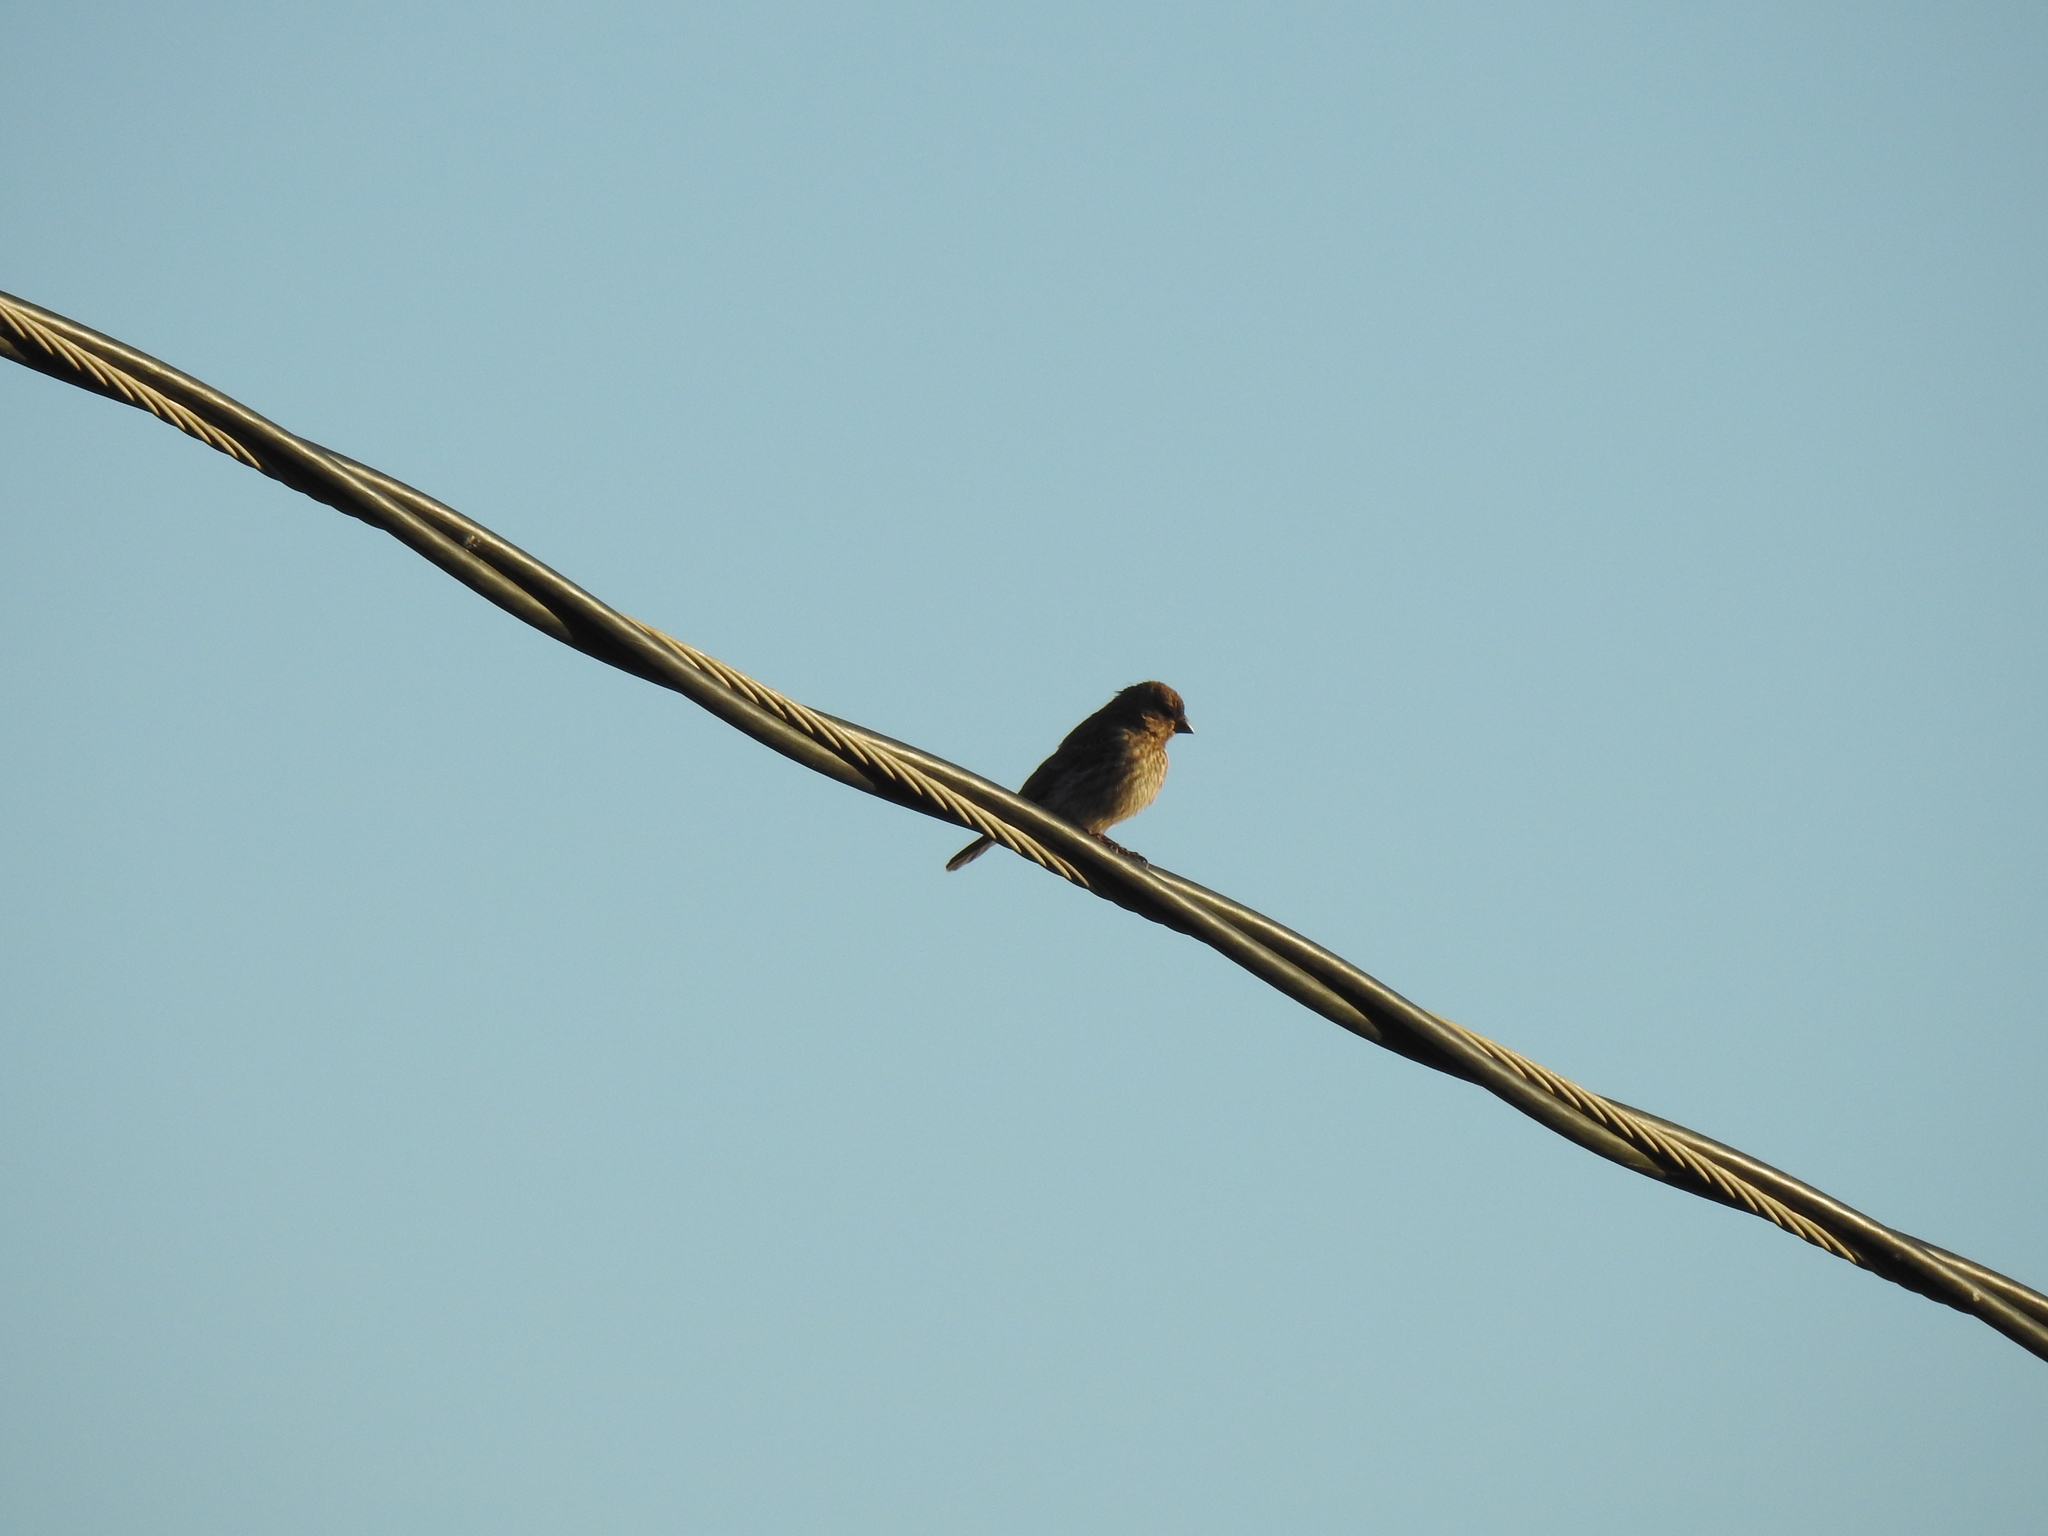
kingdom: Animalia
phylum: Chordata
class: Aves
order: Passeriformes
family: Fringillidae
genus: Haemorhous
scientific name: Haemorhous mexicanus
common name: House finch
